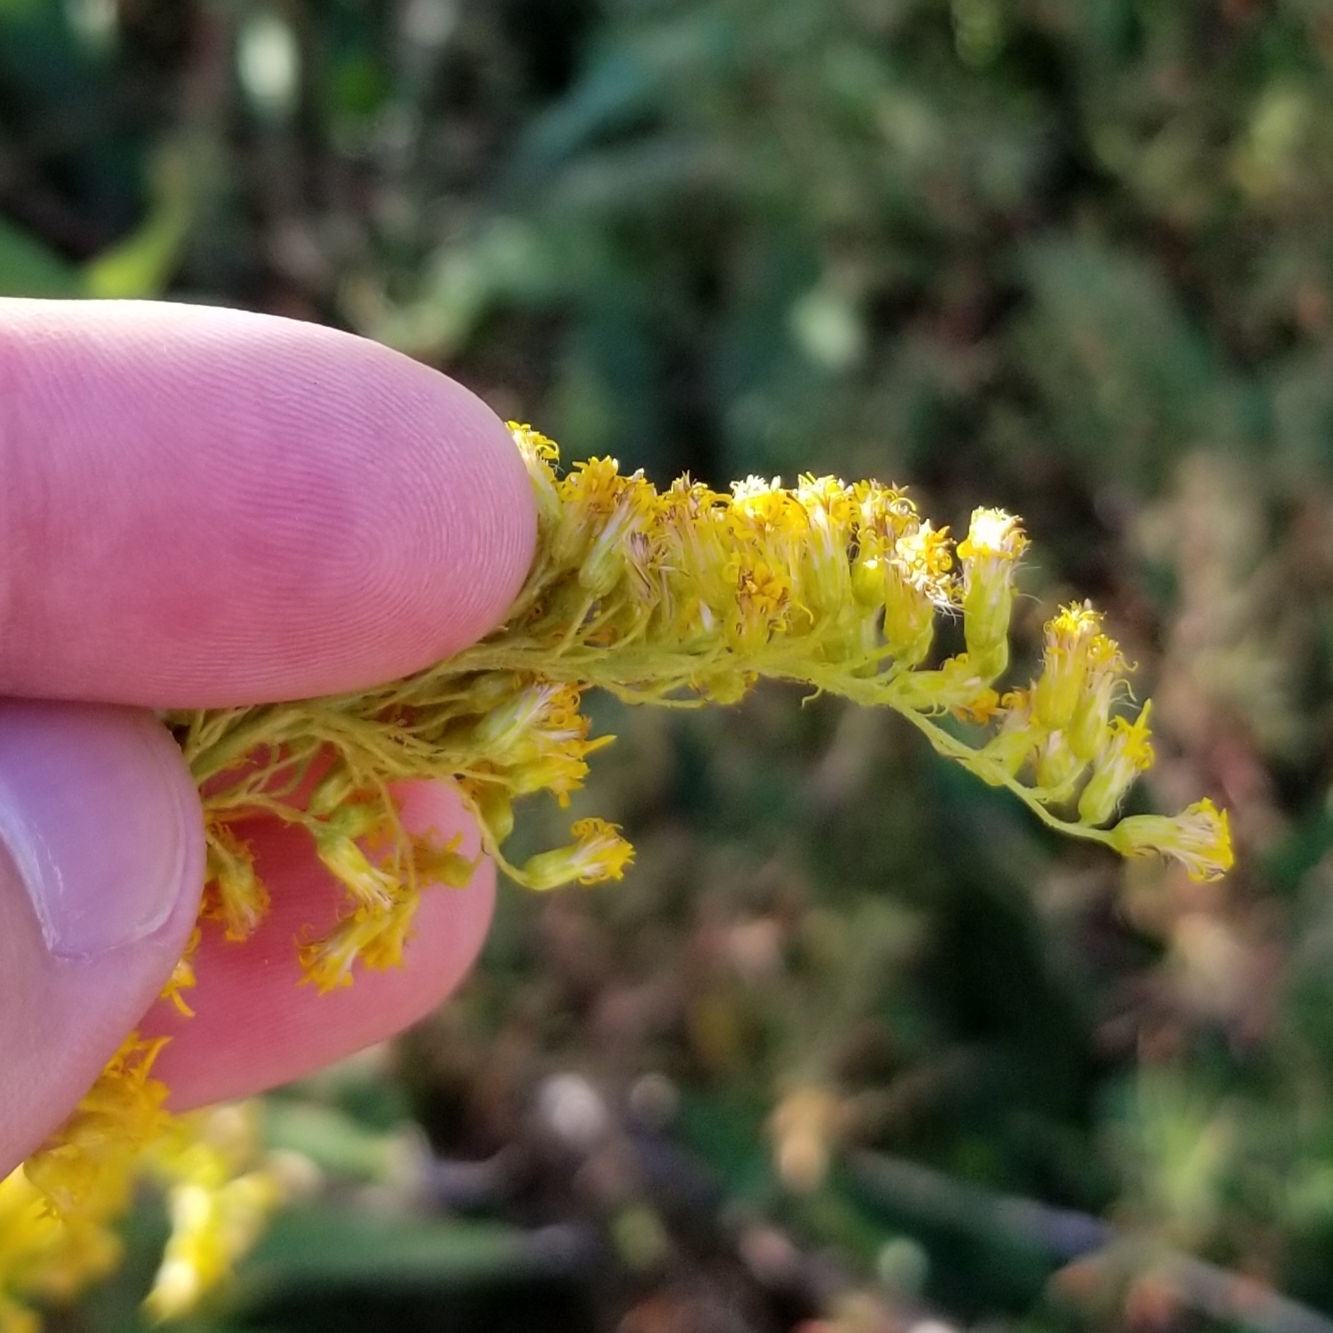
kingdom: Plantae
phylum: Tracheophyta
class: Magnoliopsida
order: Asterales
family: Asteraceae
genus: Solidago
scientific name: Solidago altissima
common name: Late goldenrod
